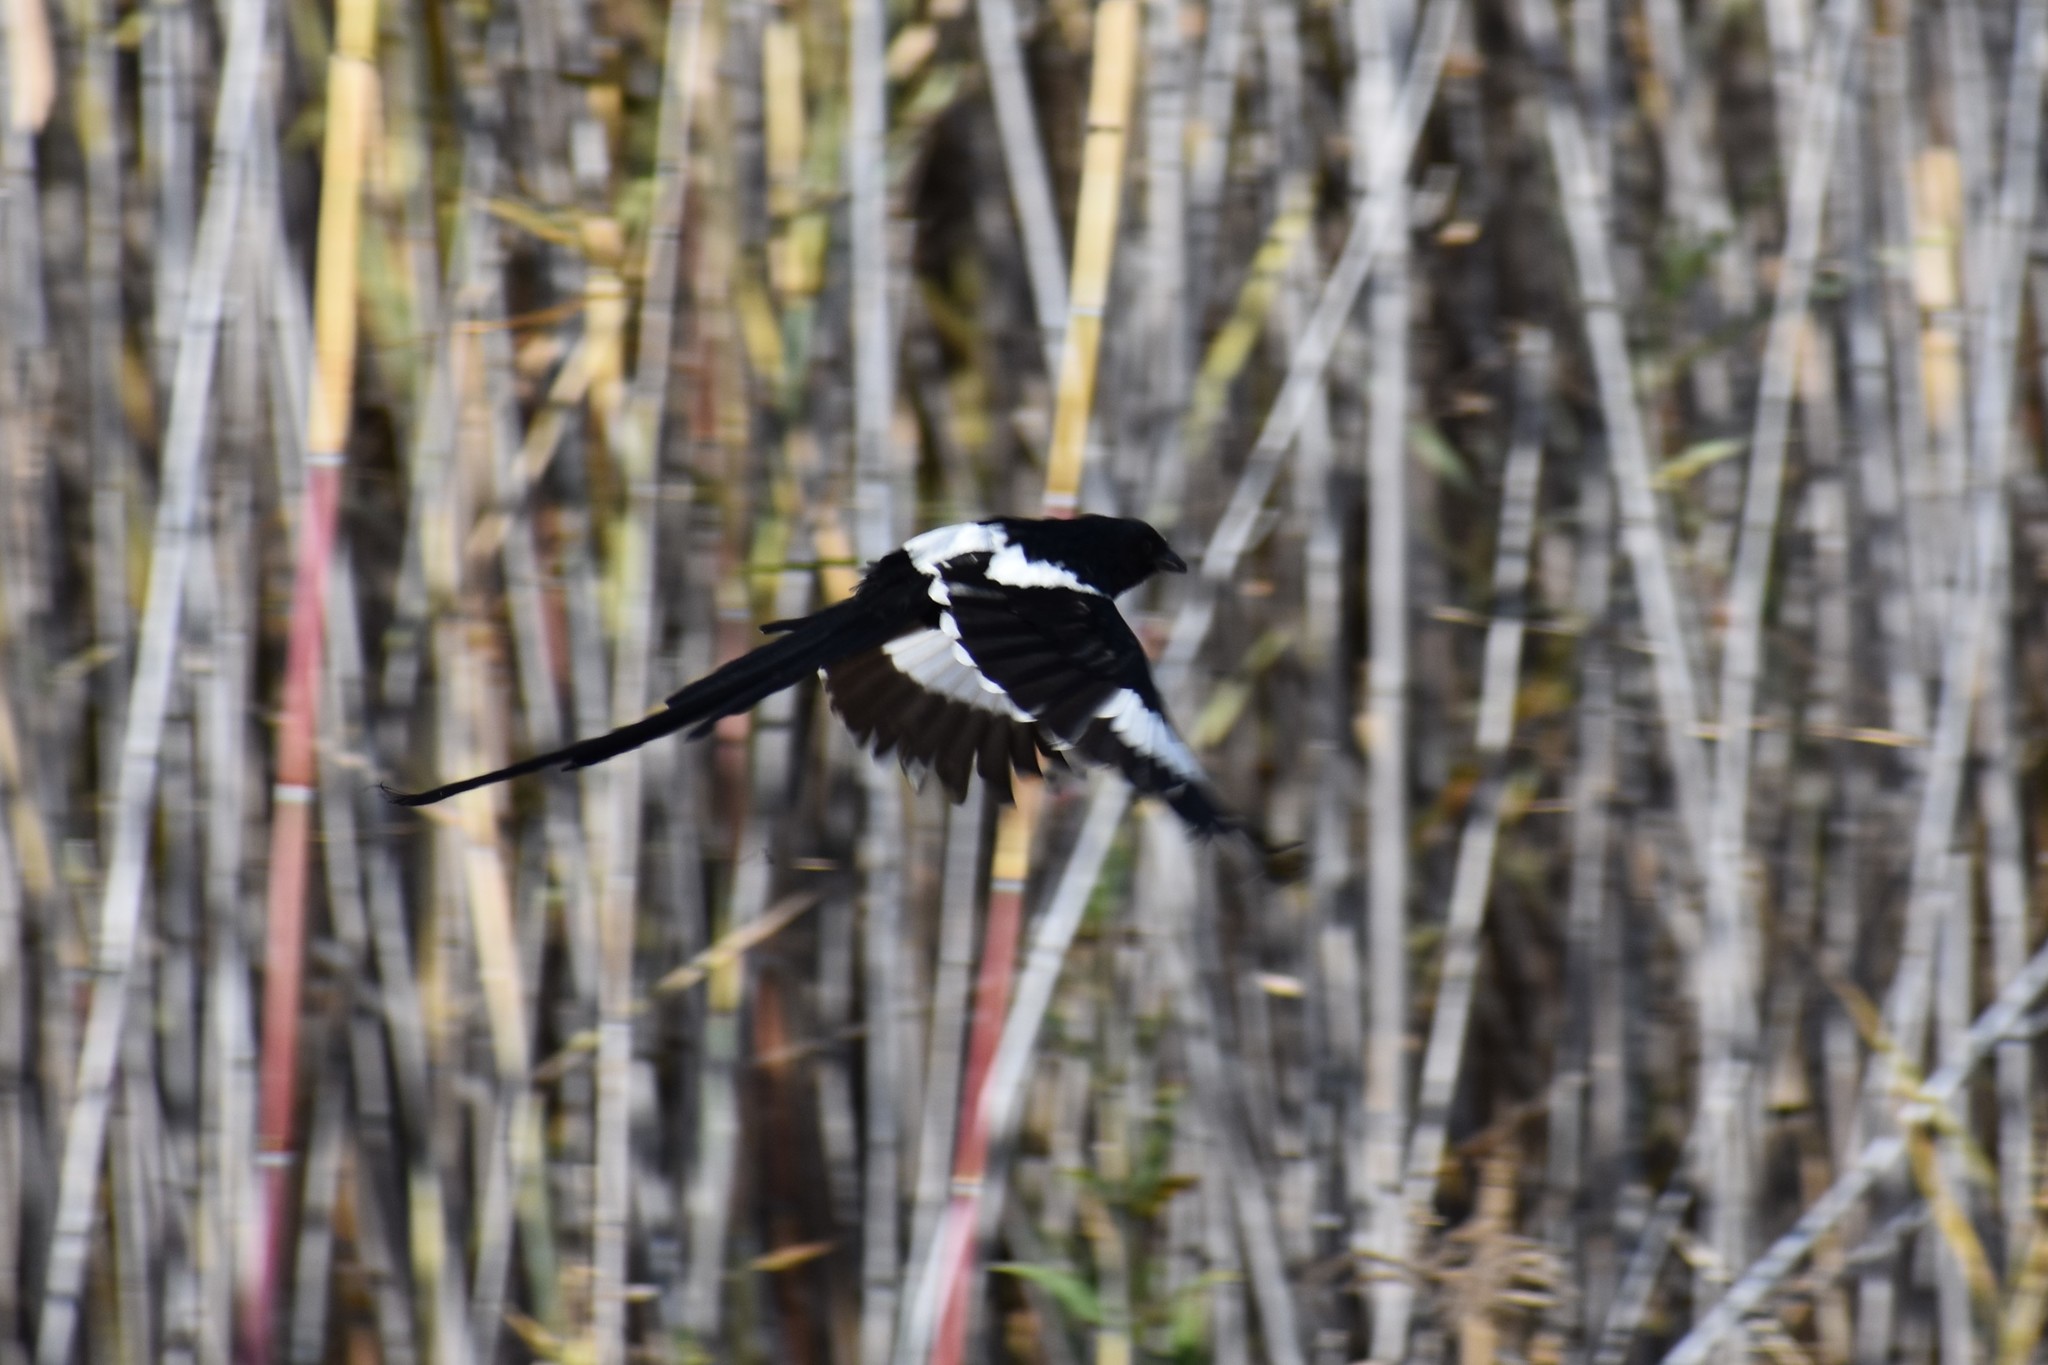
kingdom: Animalia
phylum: Chordata
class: Aves
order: Passeriformes
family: Laniidae
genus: Urolestes
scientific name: Urolestes melanoleucus
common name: Magpie shrike
